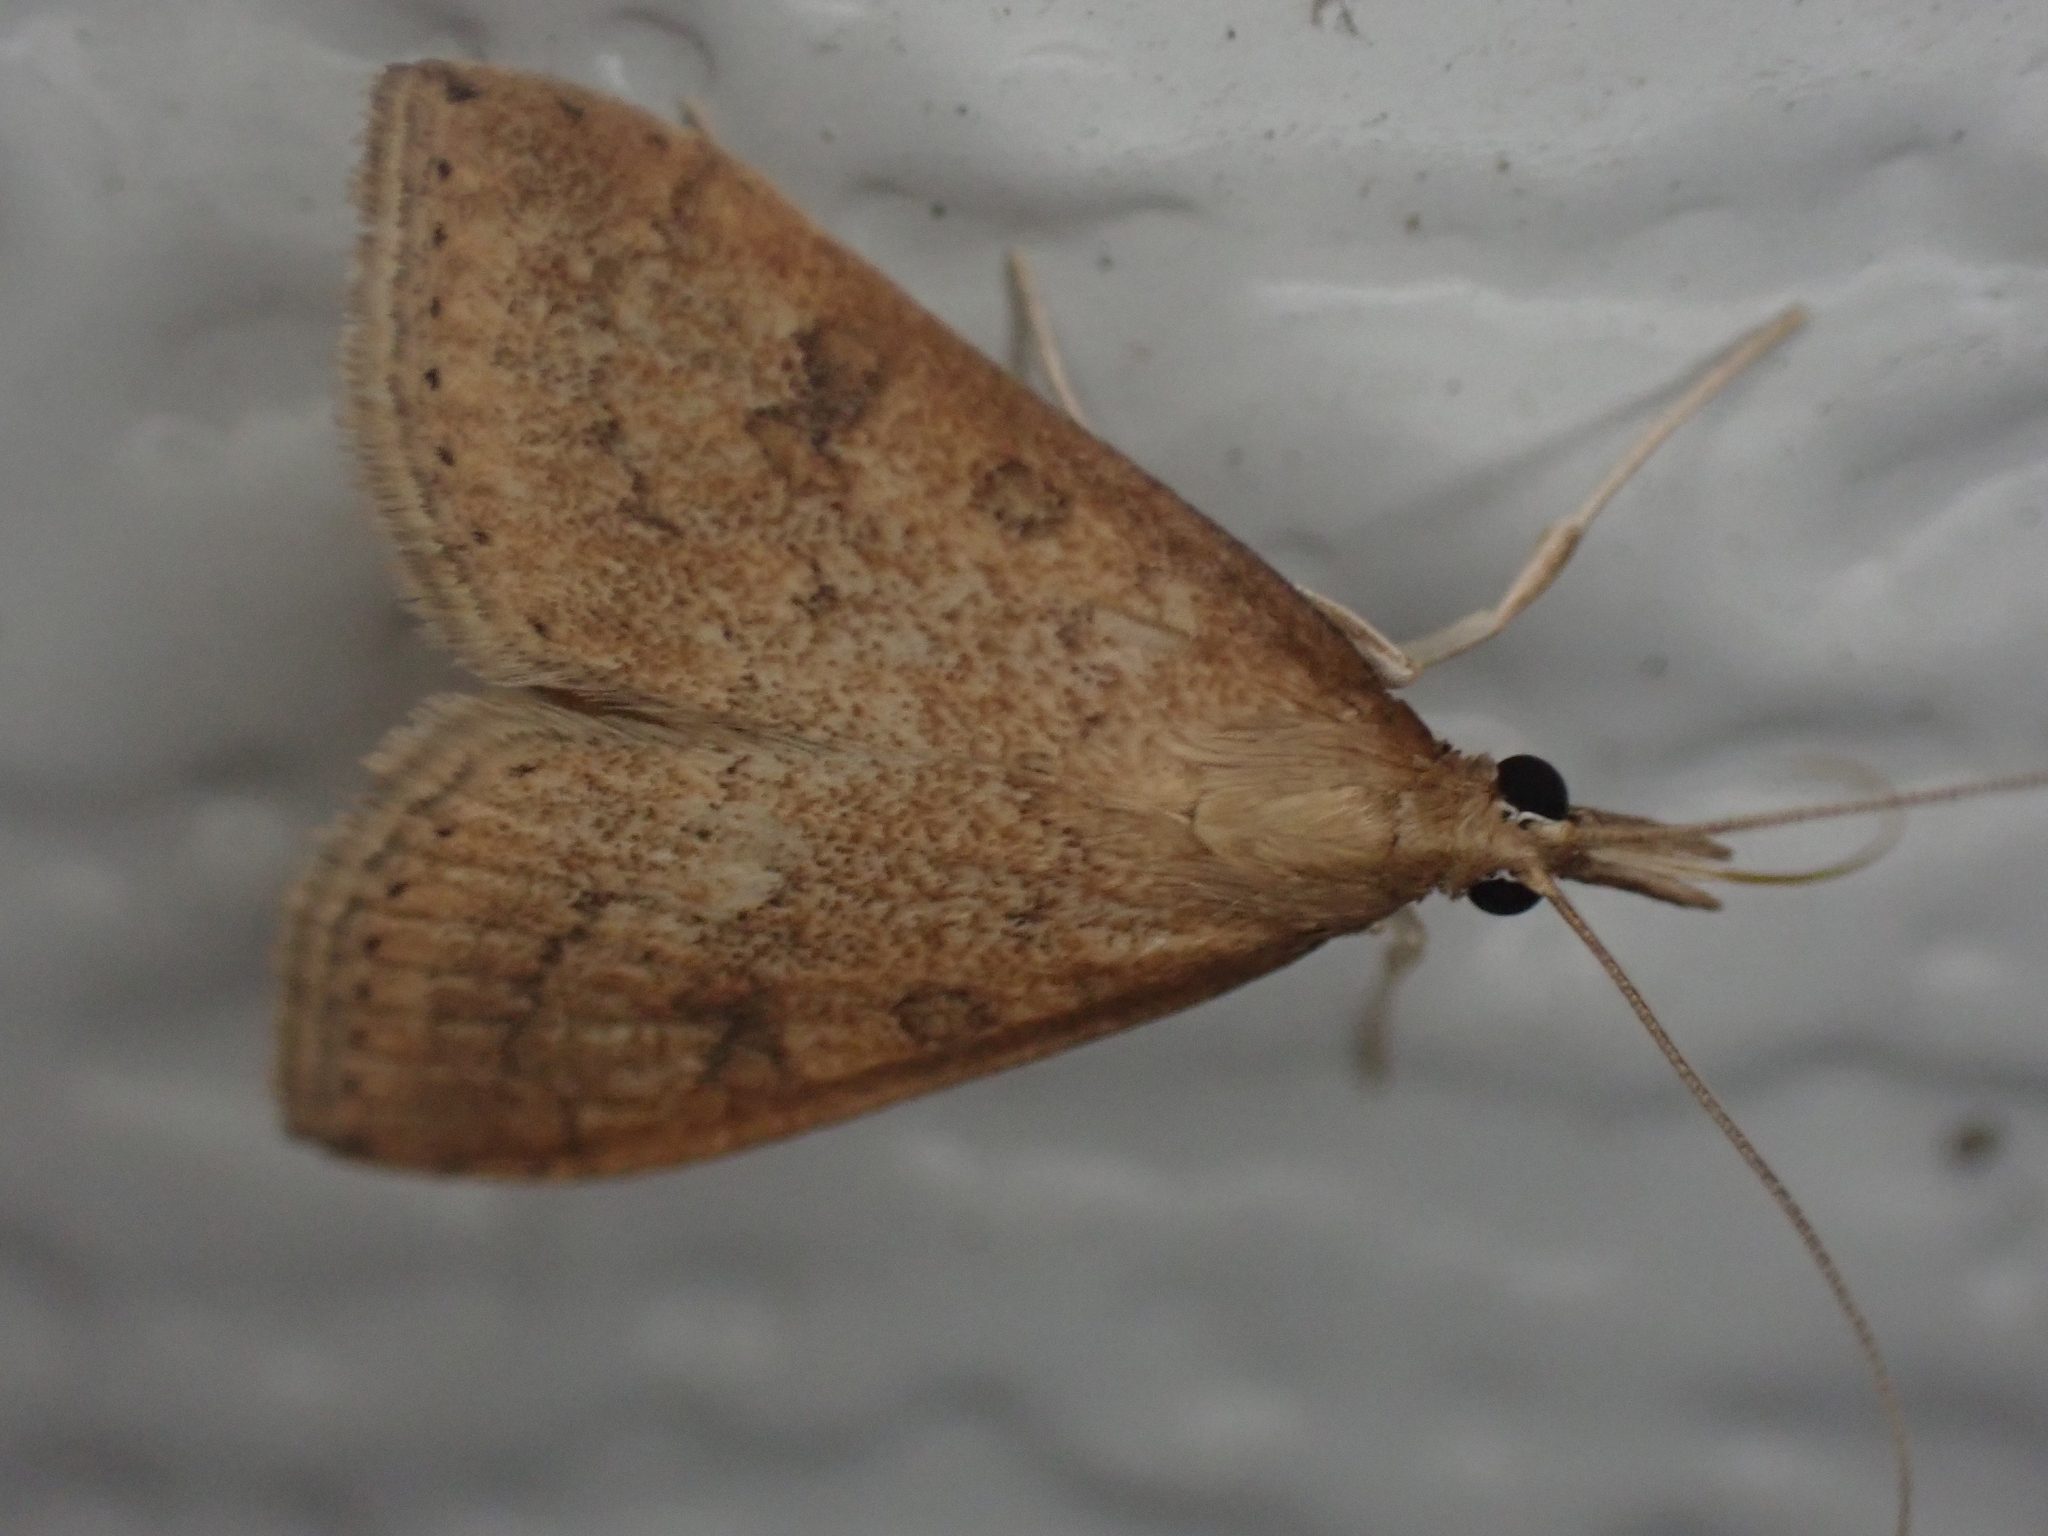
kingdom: Animalia
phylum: Arthropoda
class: Insecta
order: Lepidoptera
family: Crambidae
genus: Udea
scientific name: Udea rubigalis
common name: Celery leaftier moth
